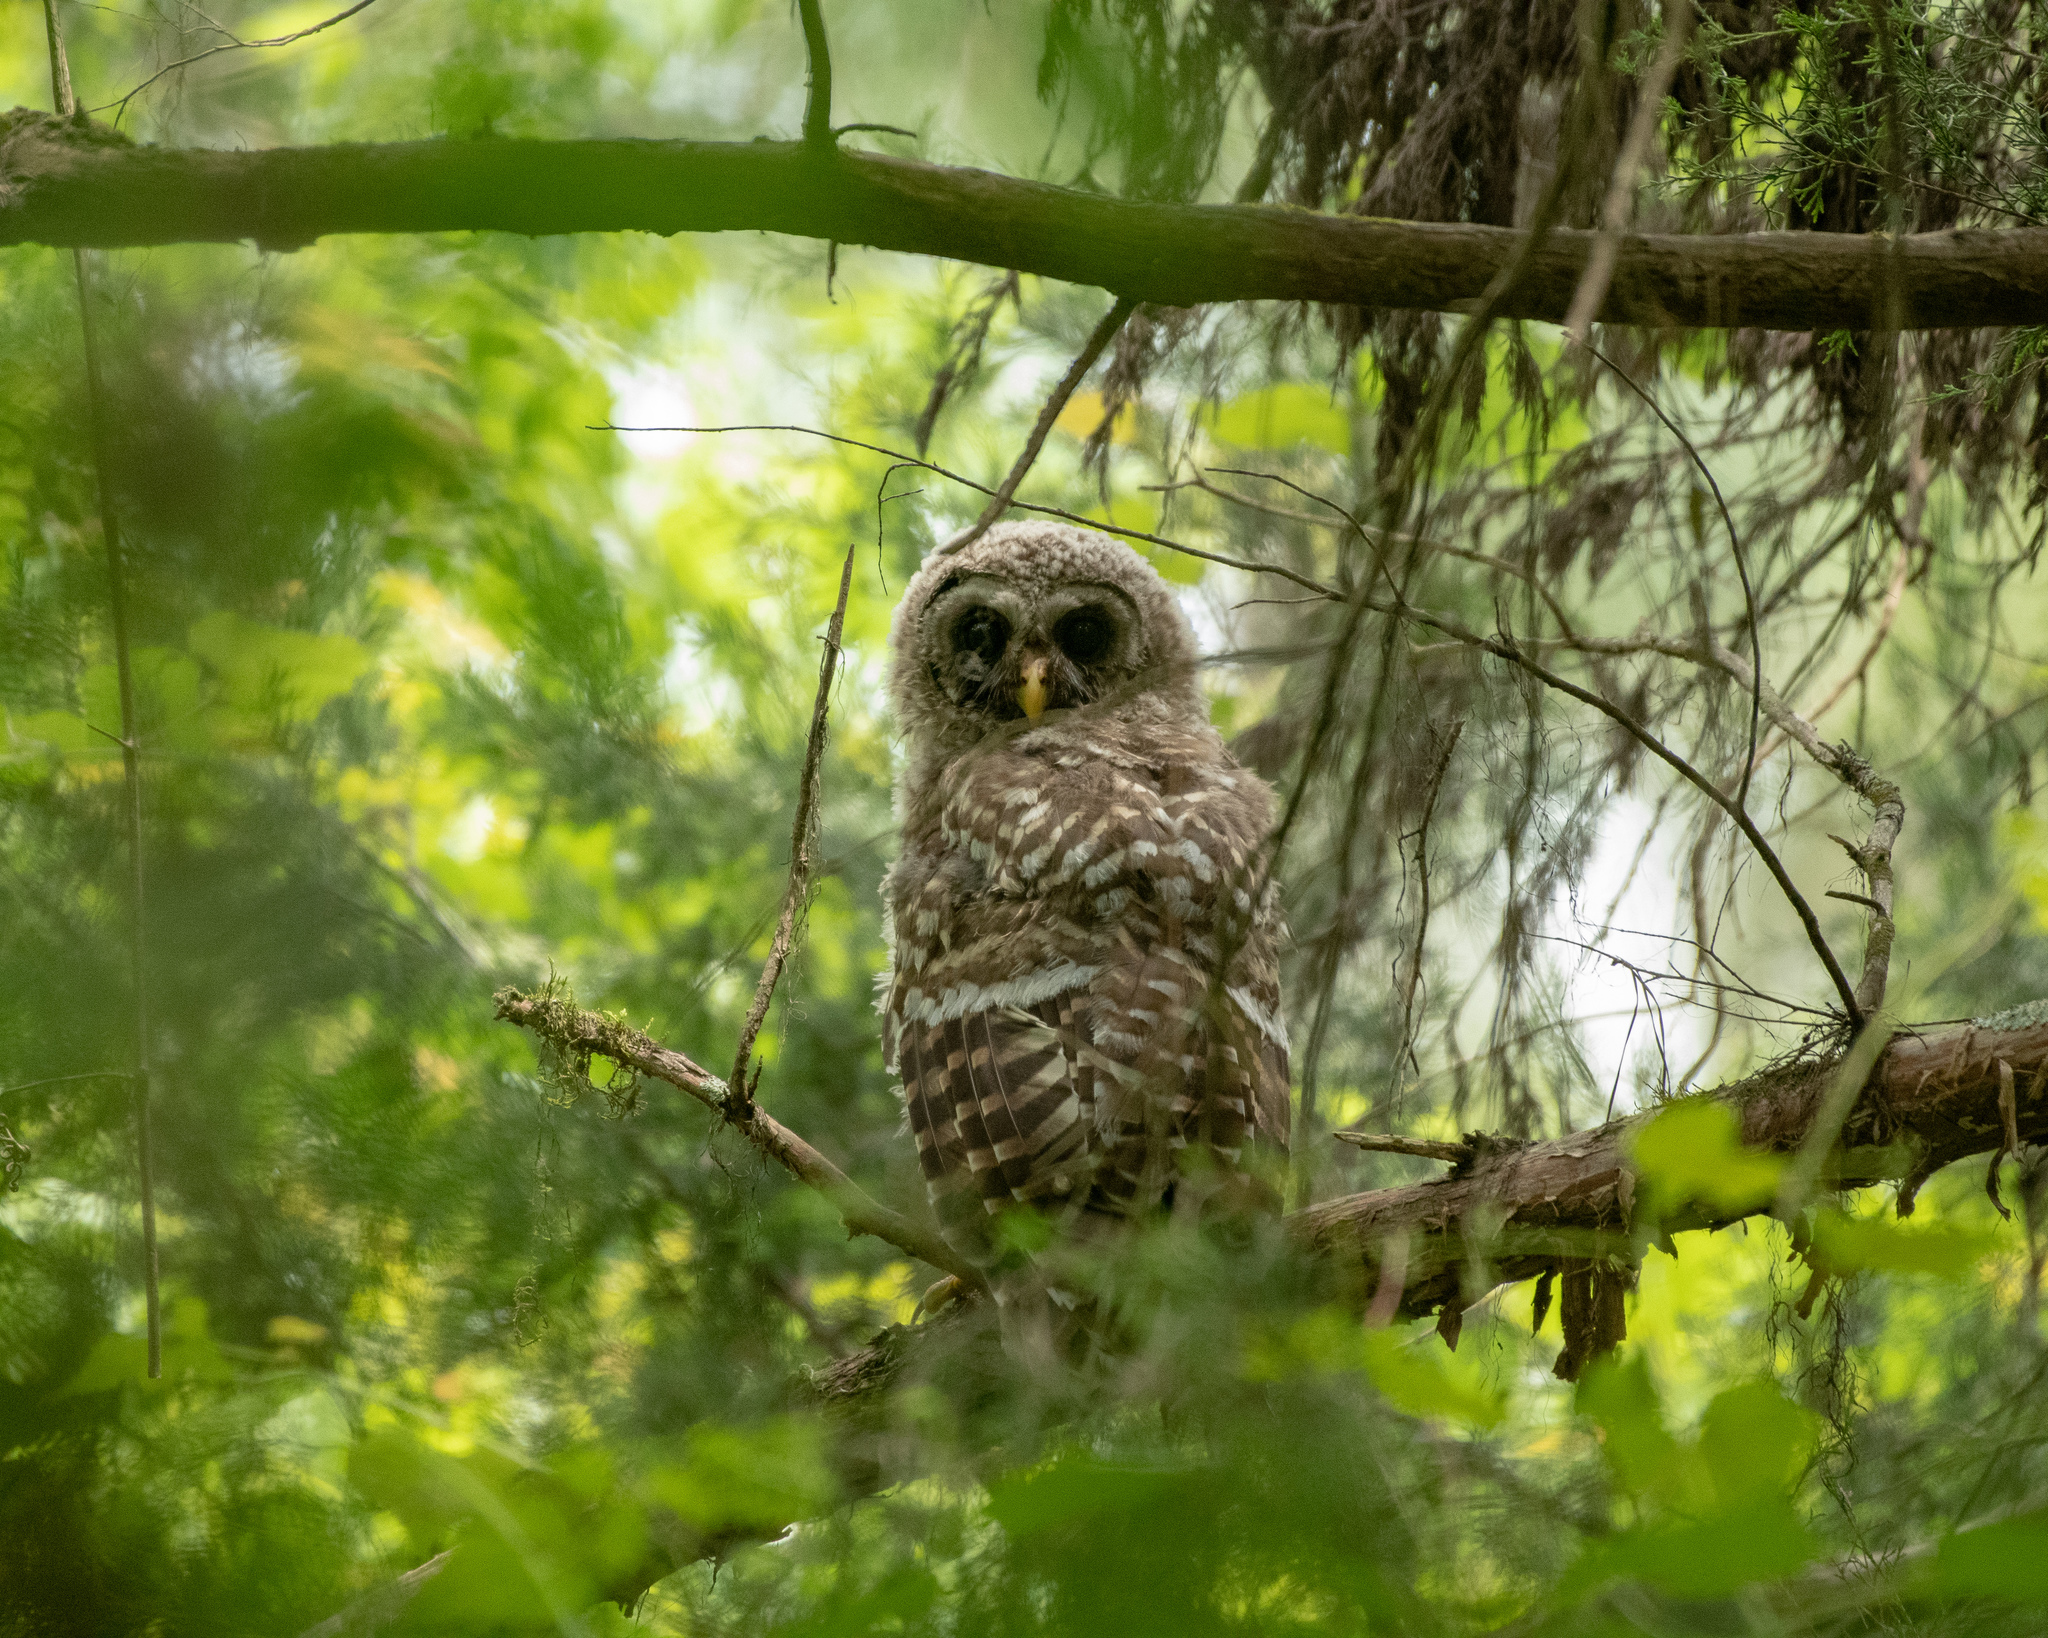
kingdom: Animalia
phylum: Chordata
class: Aves
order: Strigiformes
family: Strigidae
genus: Strix
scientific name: Strix varia
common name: Barred owl
